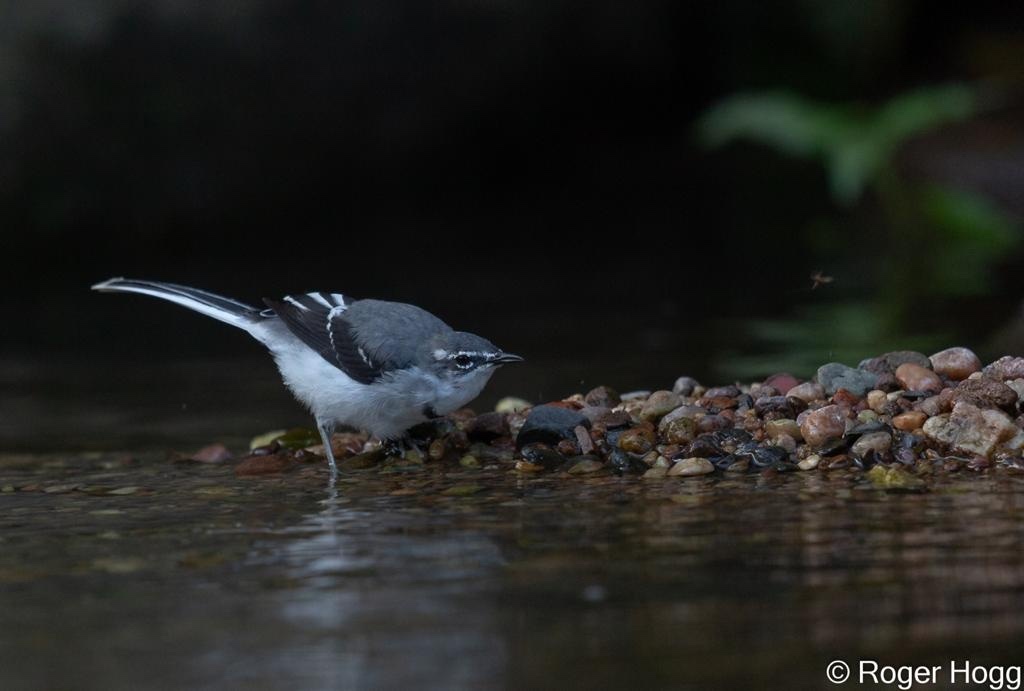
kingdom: Animalia
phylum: Chordata
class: Aves
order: Passeriformes
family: Motacillidae
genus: Motacilla
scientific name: Motacilla clara
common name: Mountain wagtail
